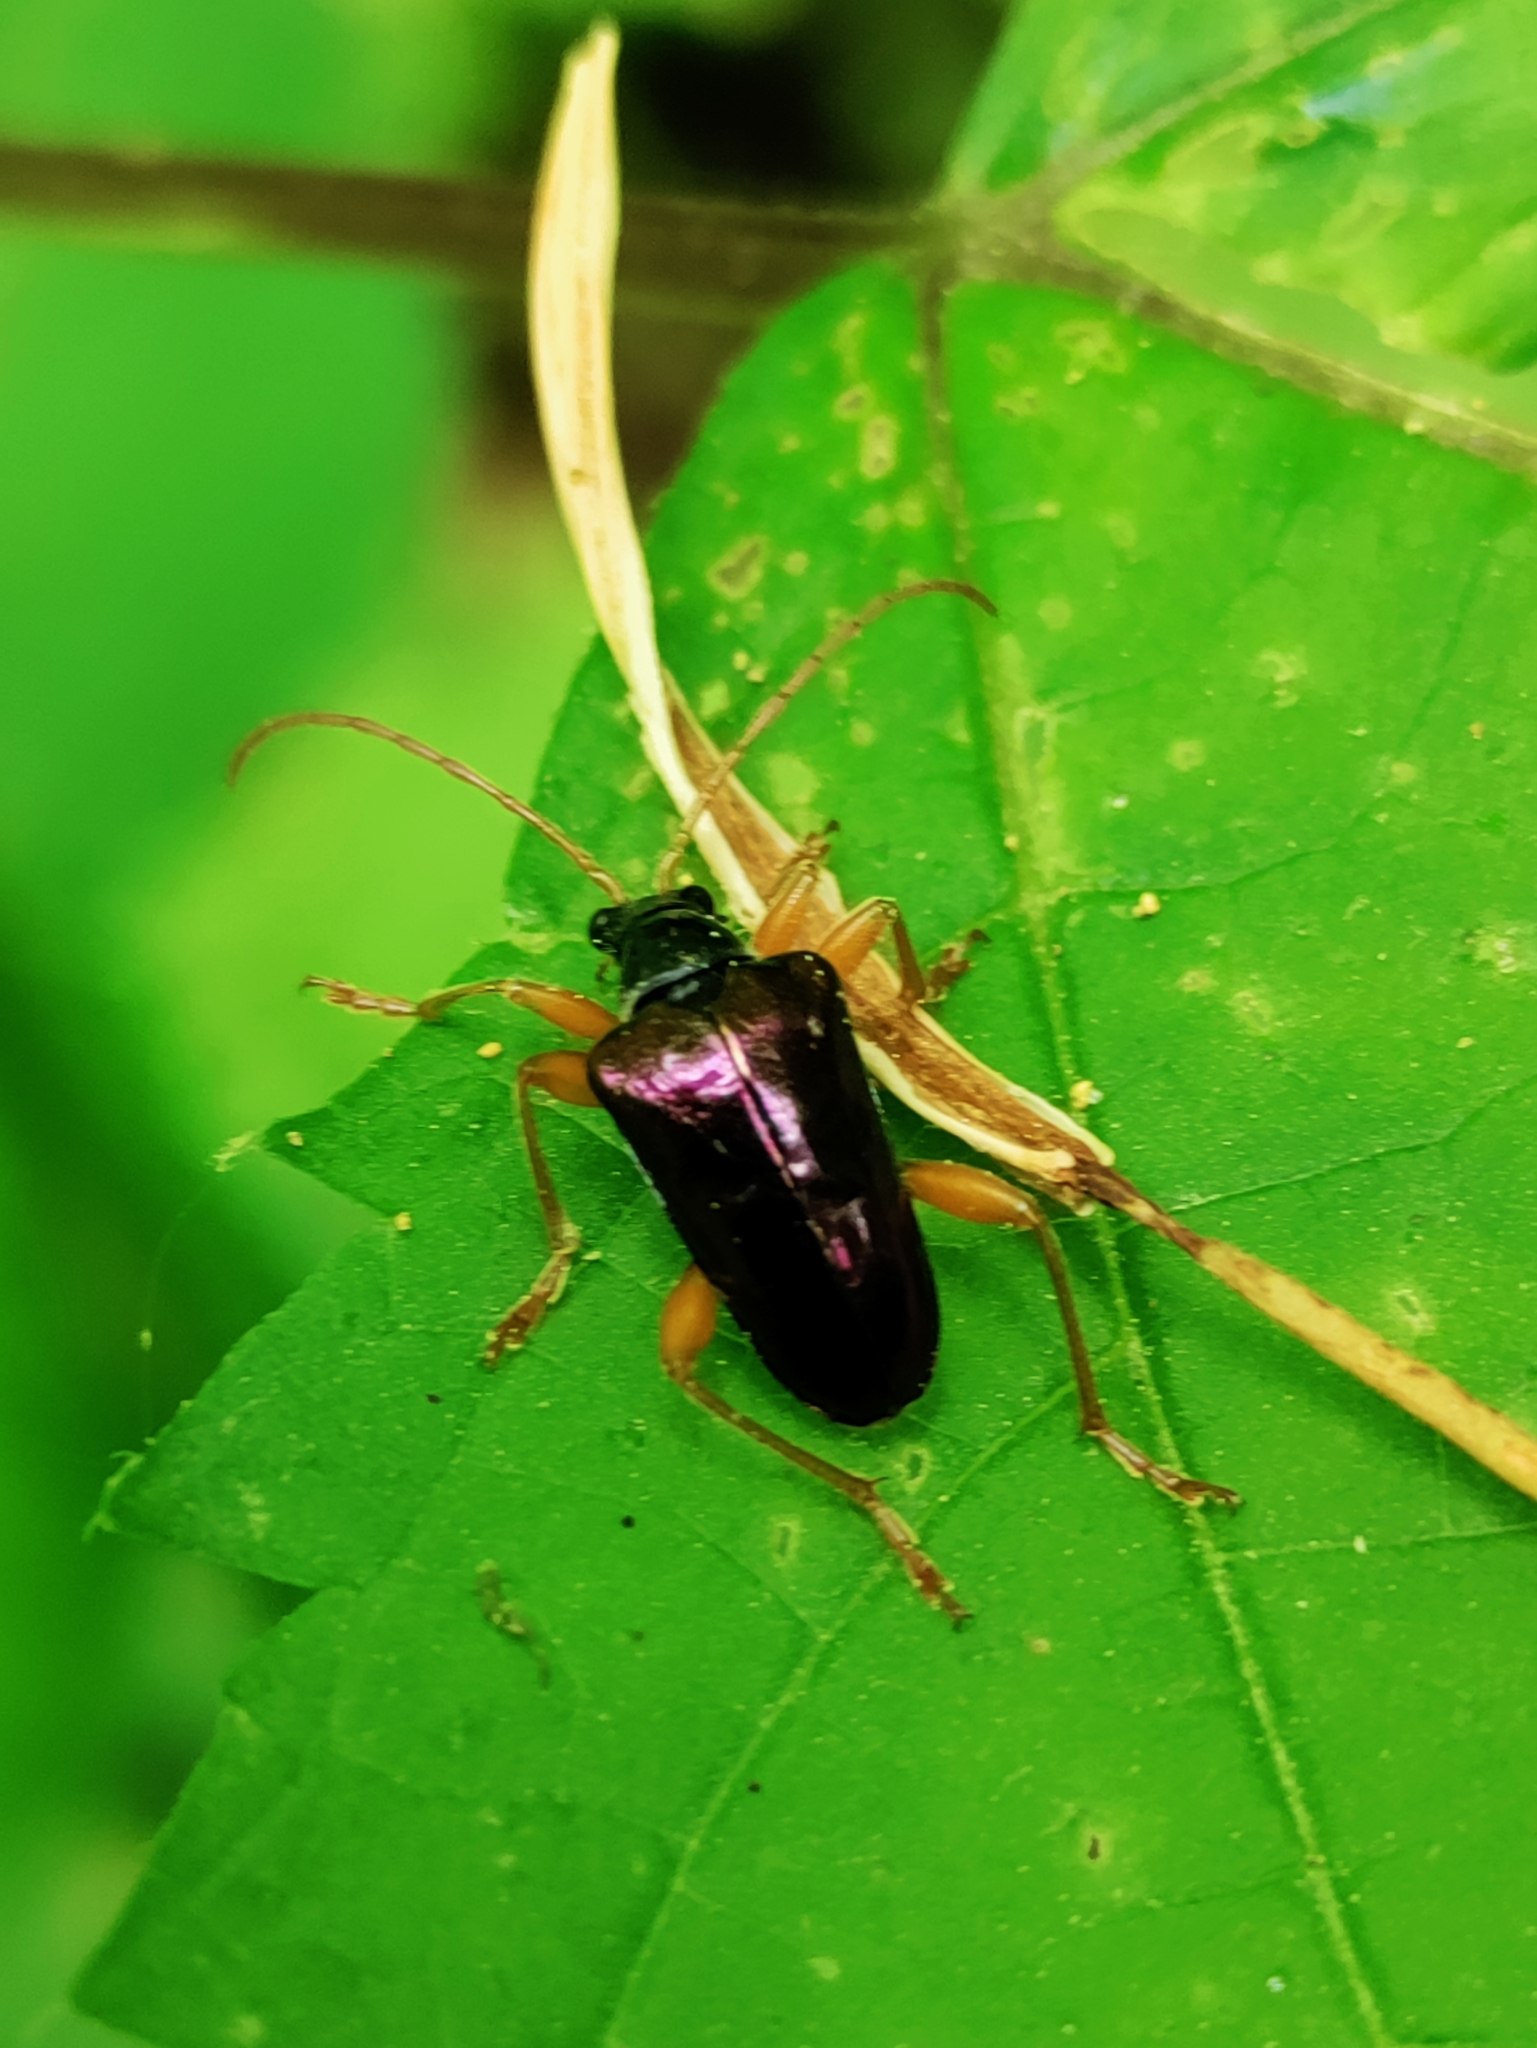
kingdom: Animalia
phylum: Arthropoda
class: Insecta
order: Coleoptera
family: Cerambycidae
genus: Gaurotes
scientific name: Gaurotes cyanipennis
